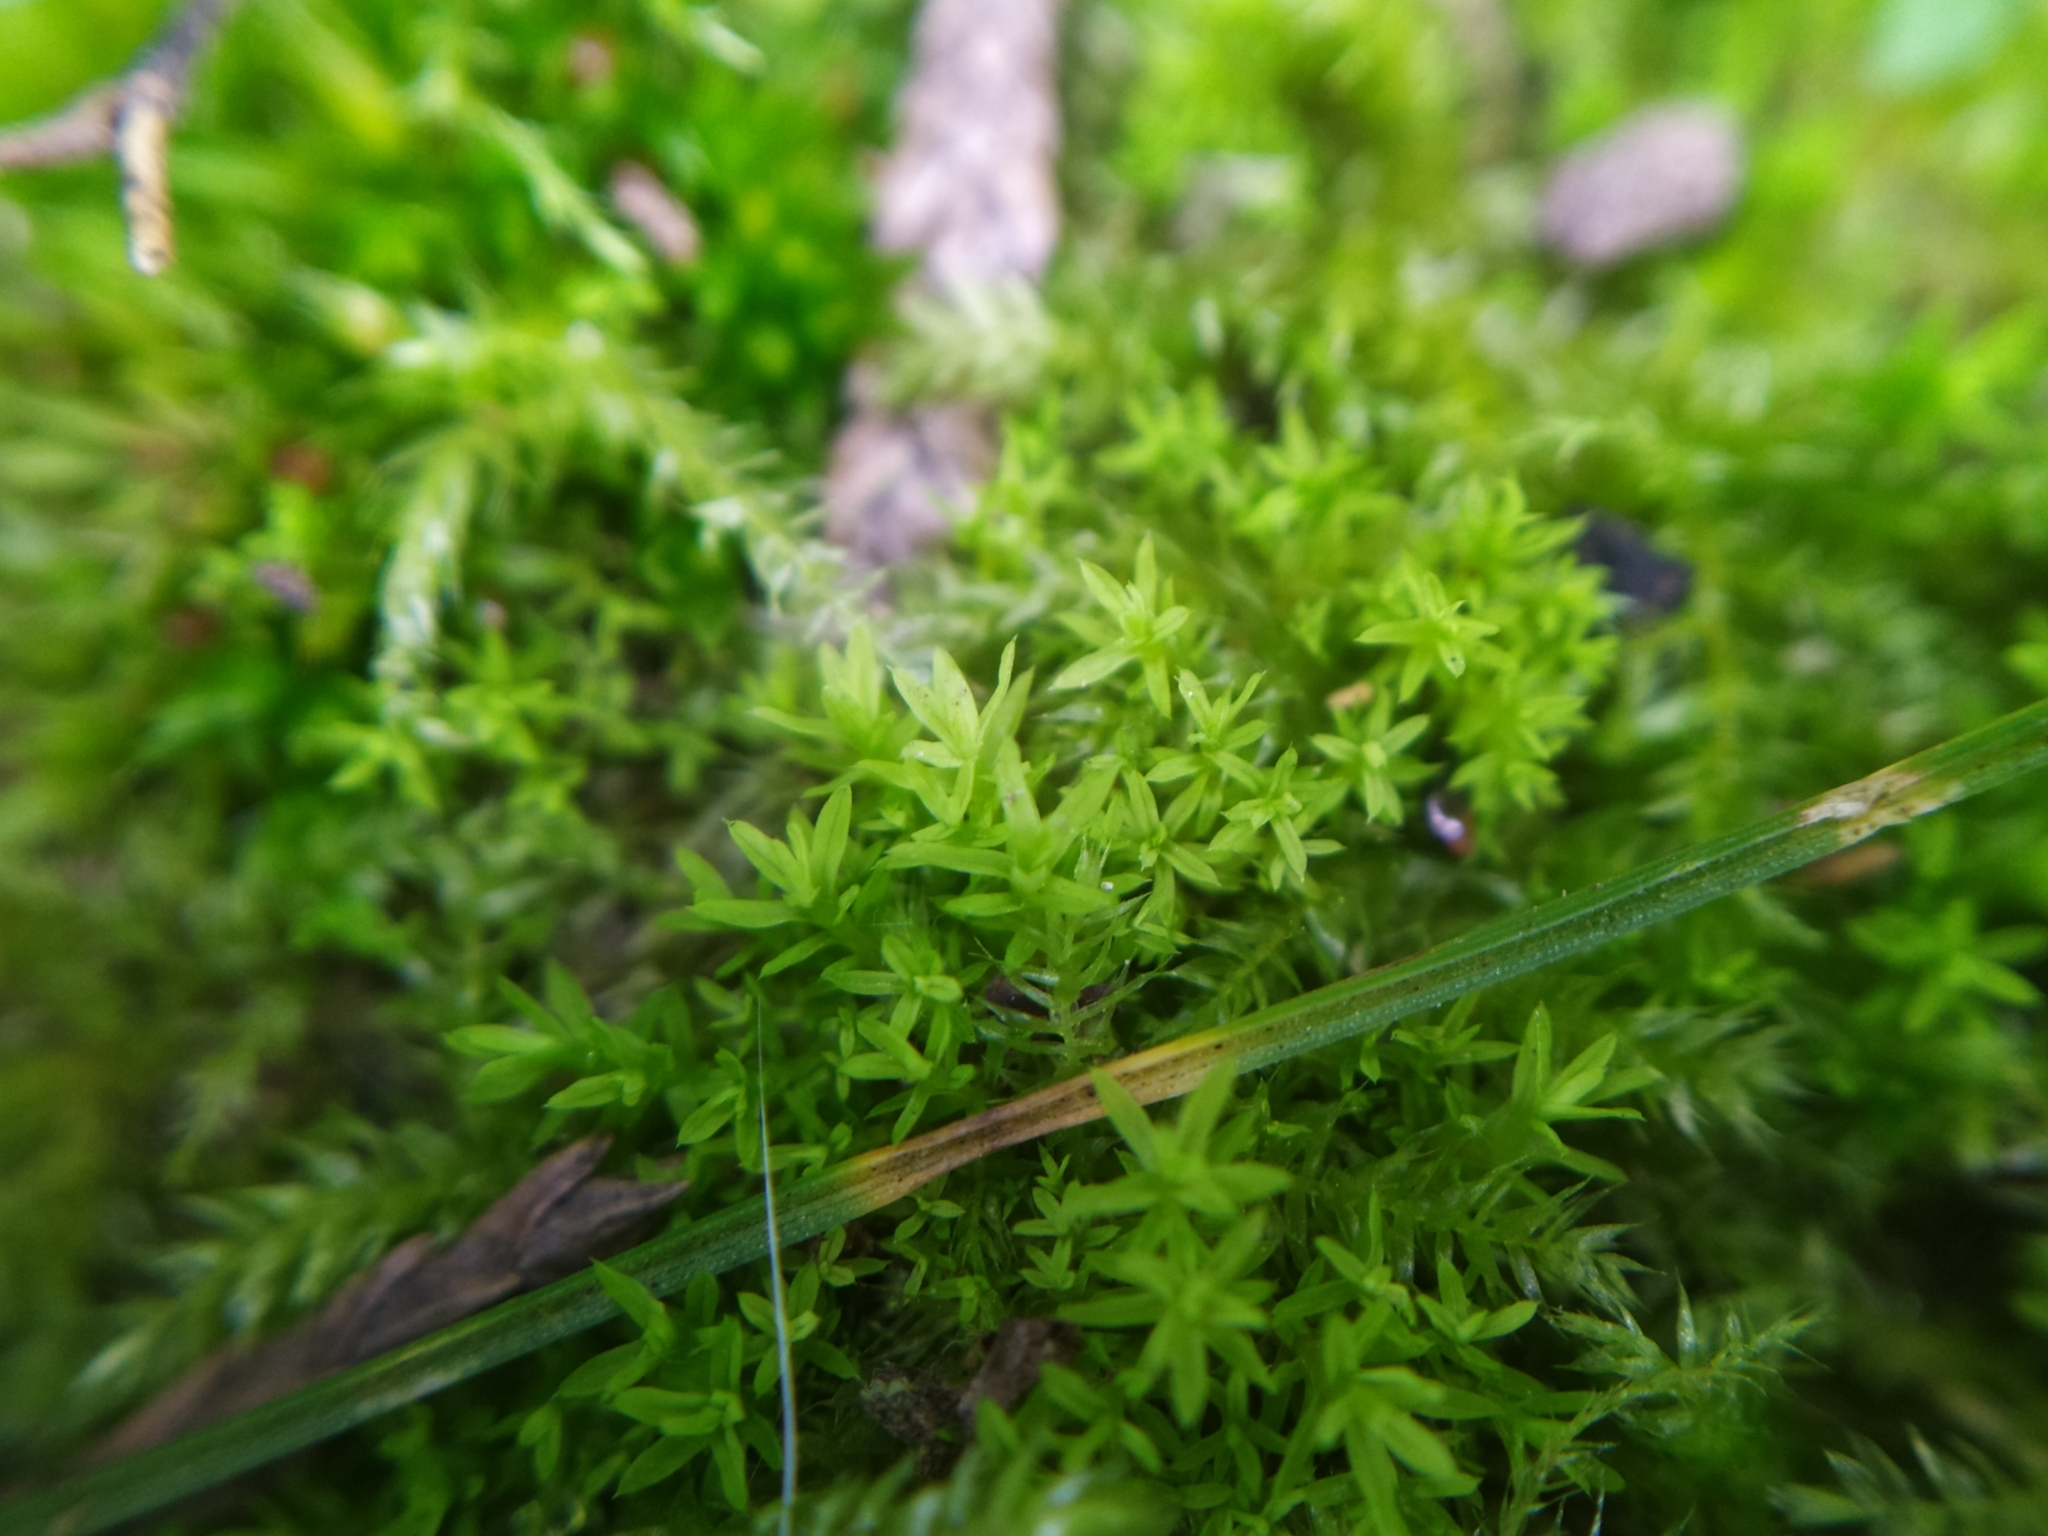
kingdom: Plantae
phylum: Bryophyta
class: Bryopsida
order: Pottiales
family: Pottiaceae
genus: Barbula
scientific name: Barbula unguiculata
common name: Prickly beard moss
